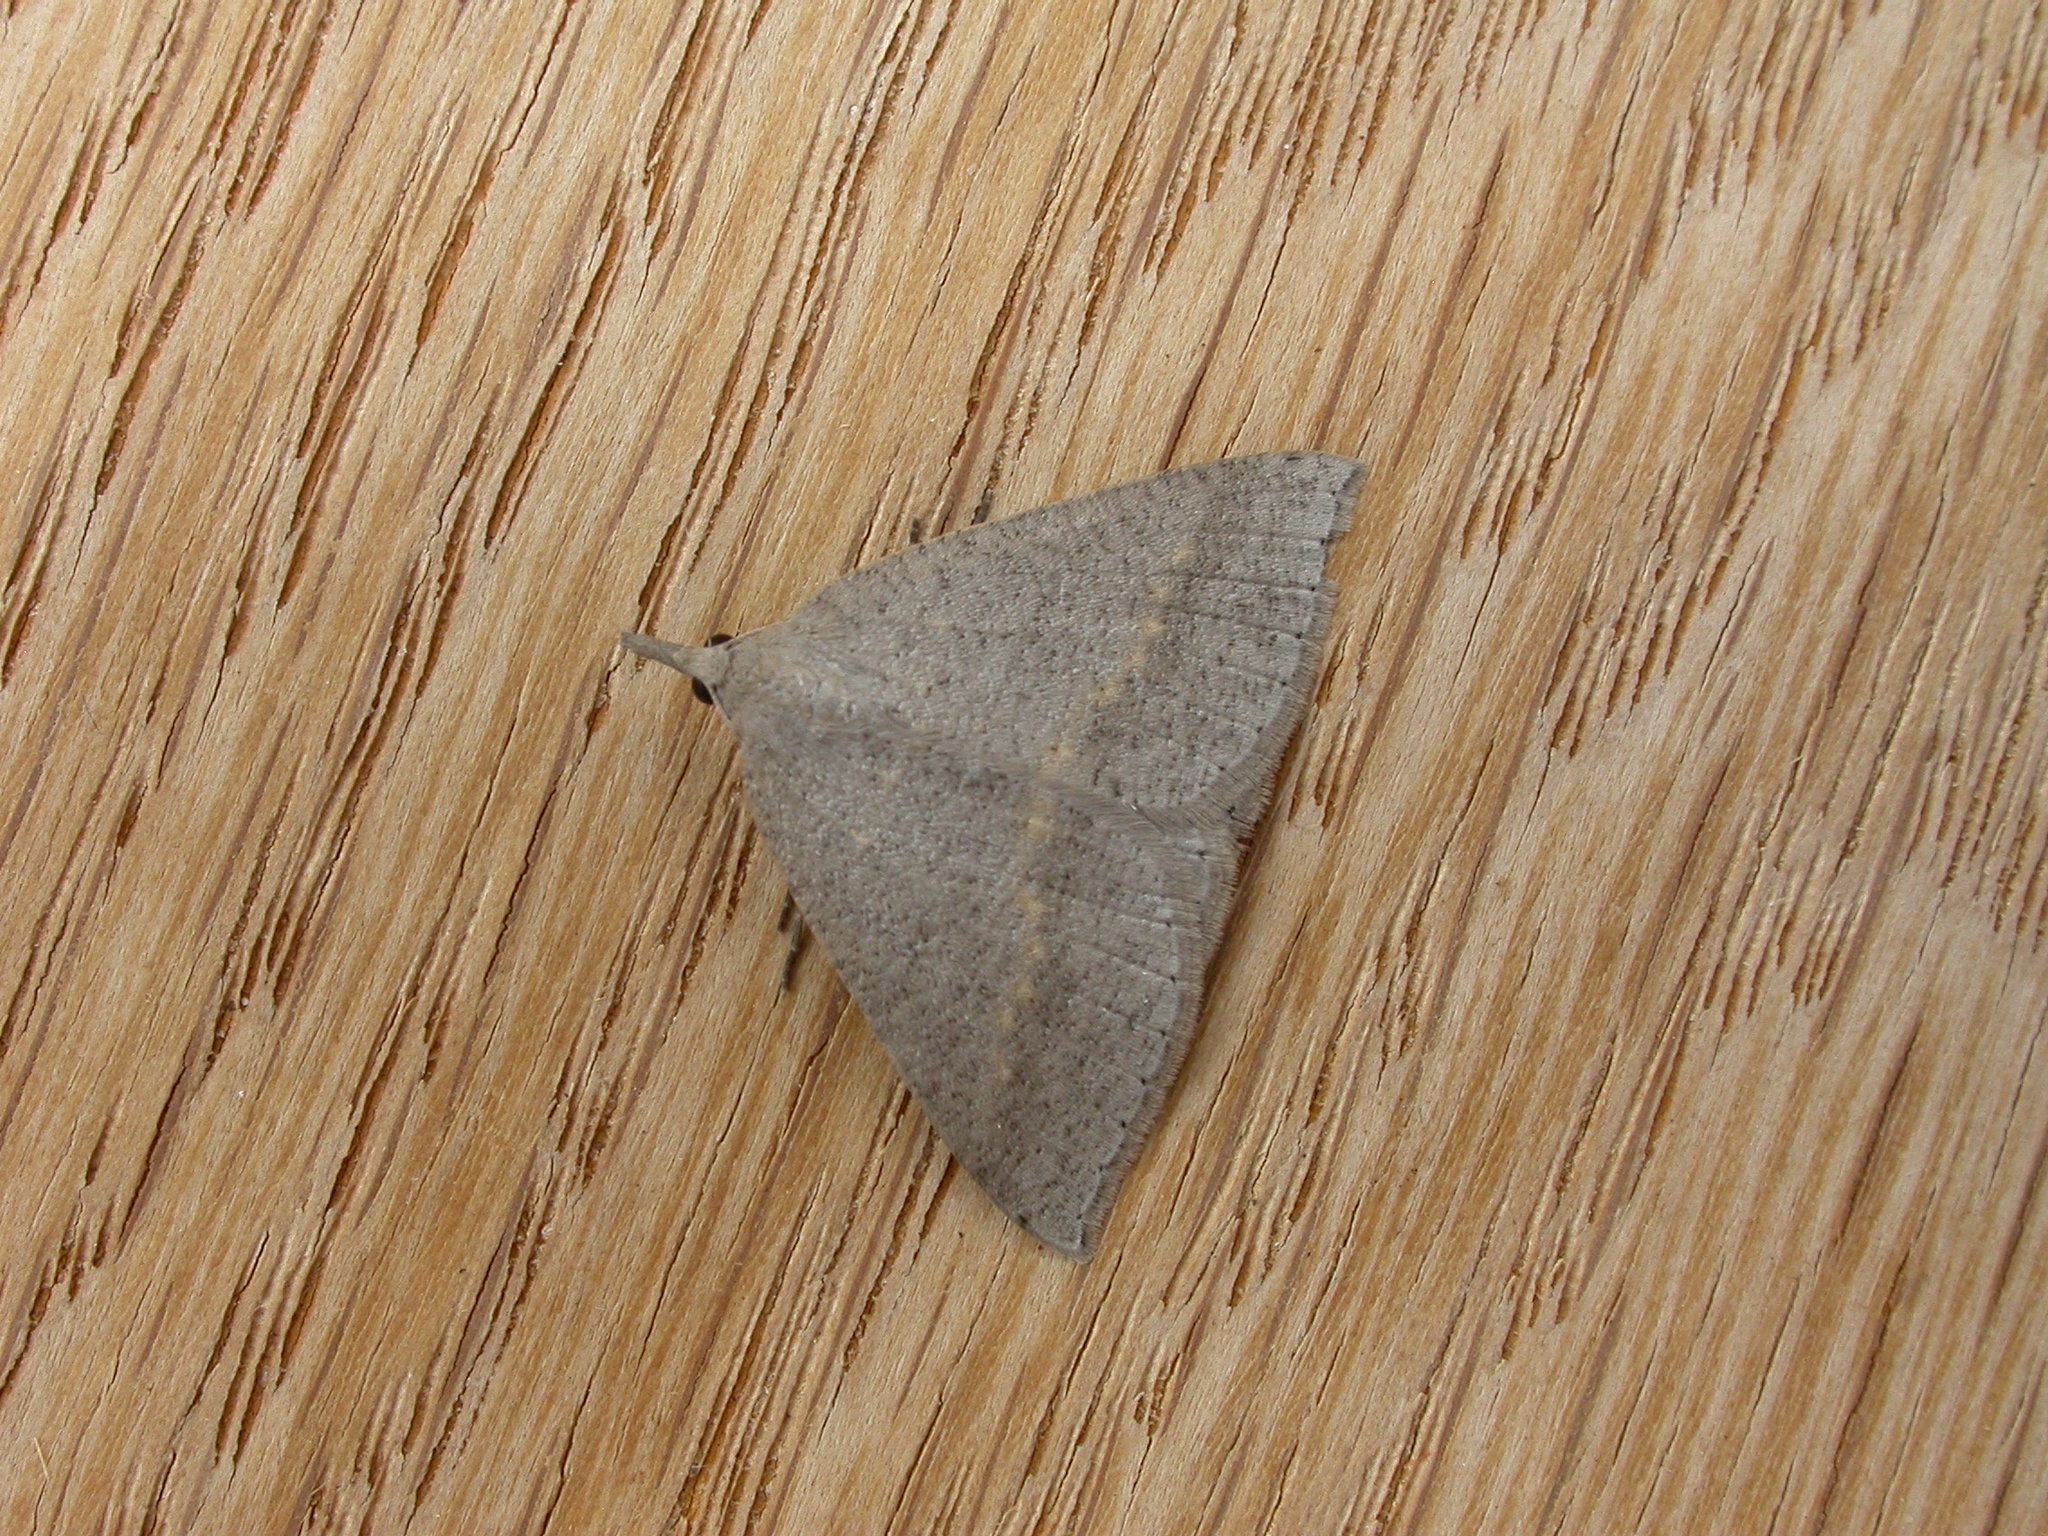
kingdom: Animalia
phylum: Arthropoda
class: Insecta
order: Lepidoptera
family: Geometridae
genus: Nearcha
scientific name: Nearcha nullata
